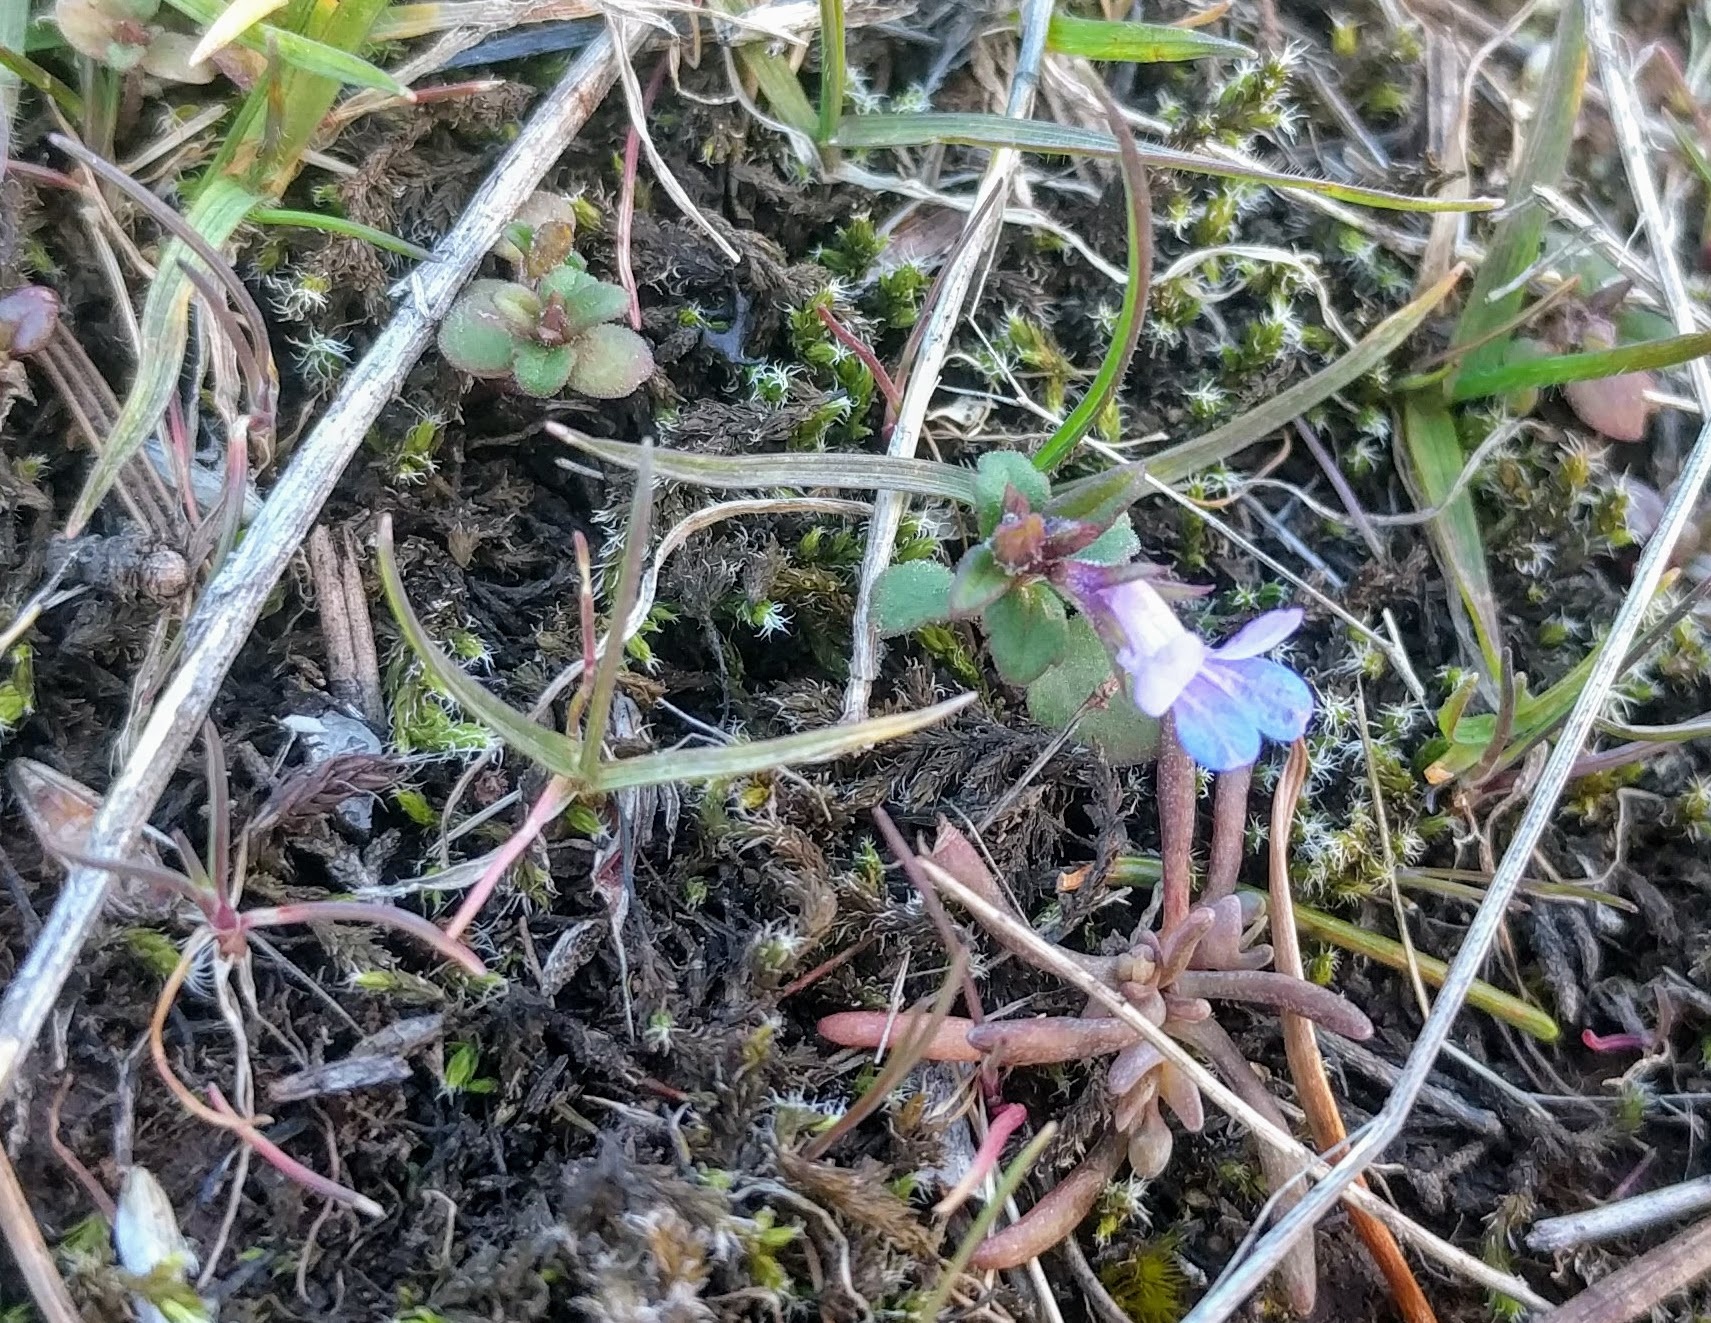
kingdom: Plantae
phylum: Tracheophyta
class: Magnoliopsida
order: Lamiales
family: Plantaginaceae
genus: Collinsia
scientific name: Collinsia parviflora
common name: Blue-lips
